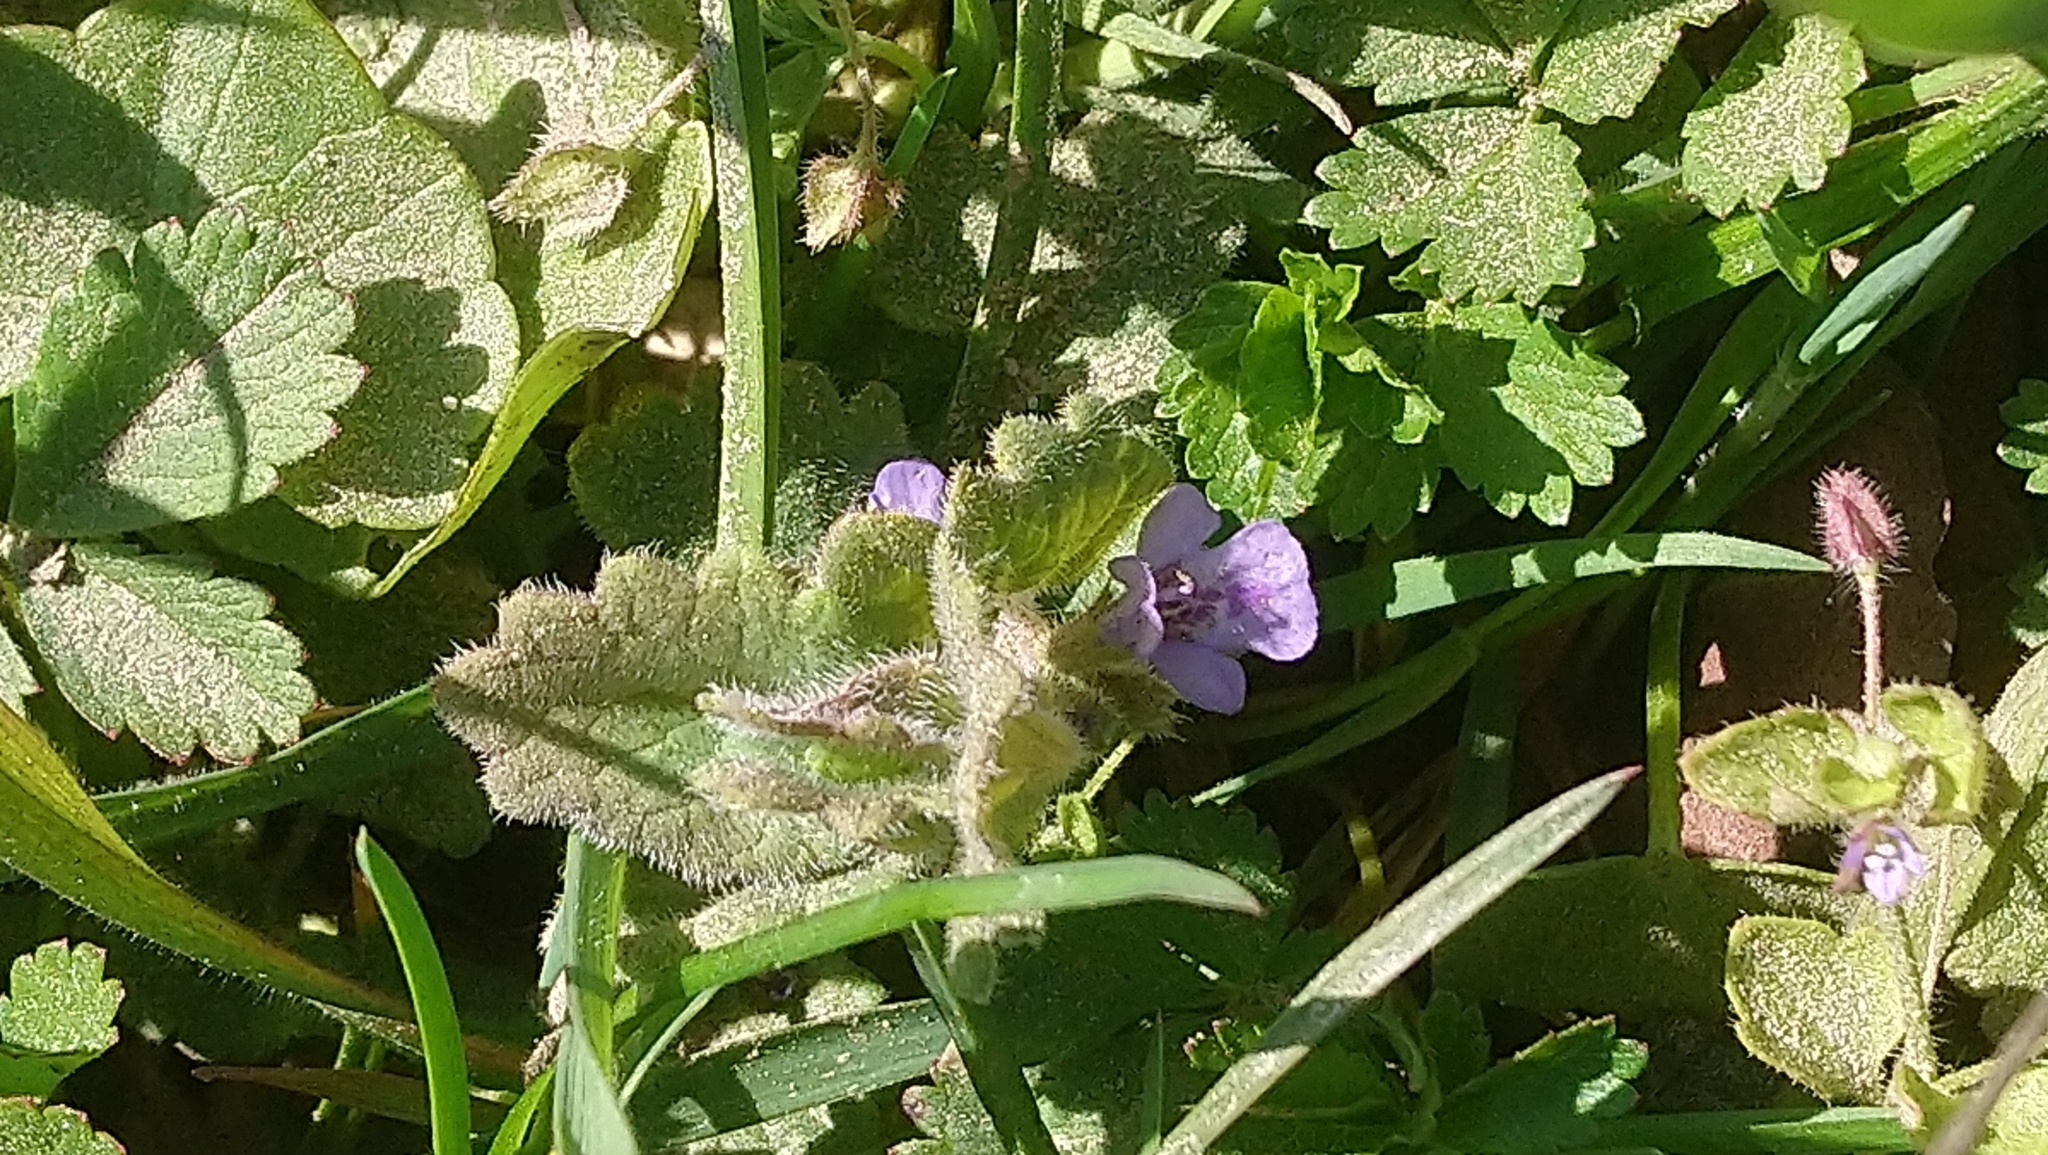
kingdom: Plantae
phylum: Tracheophyta
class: Magnoliopsida
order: Lamiales
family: Lamiaceae
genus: Glechoma
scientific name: Glechoma hederacea
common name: Ground ivy
